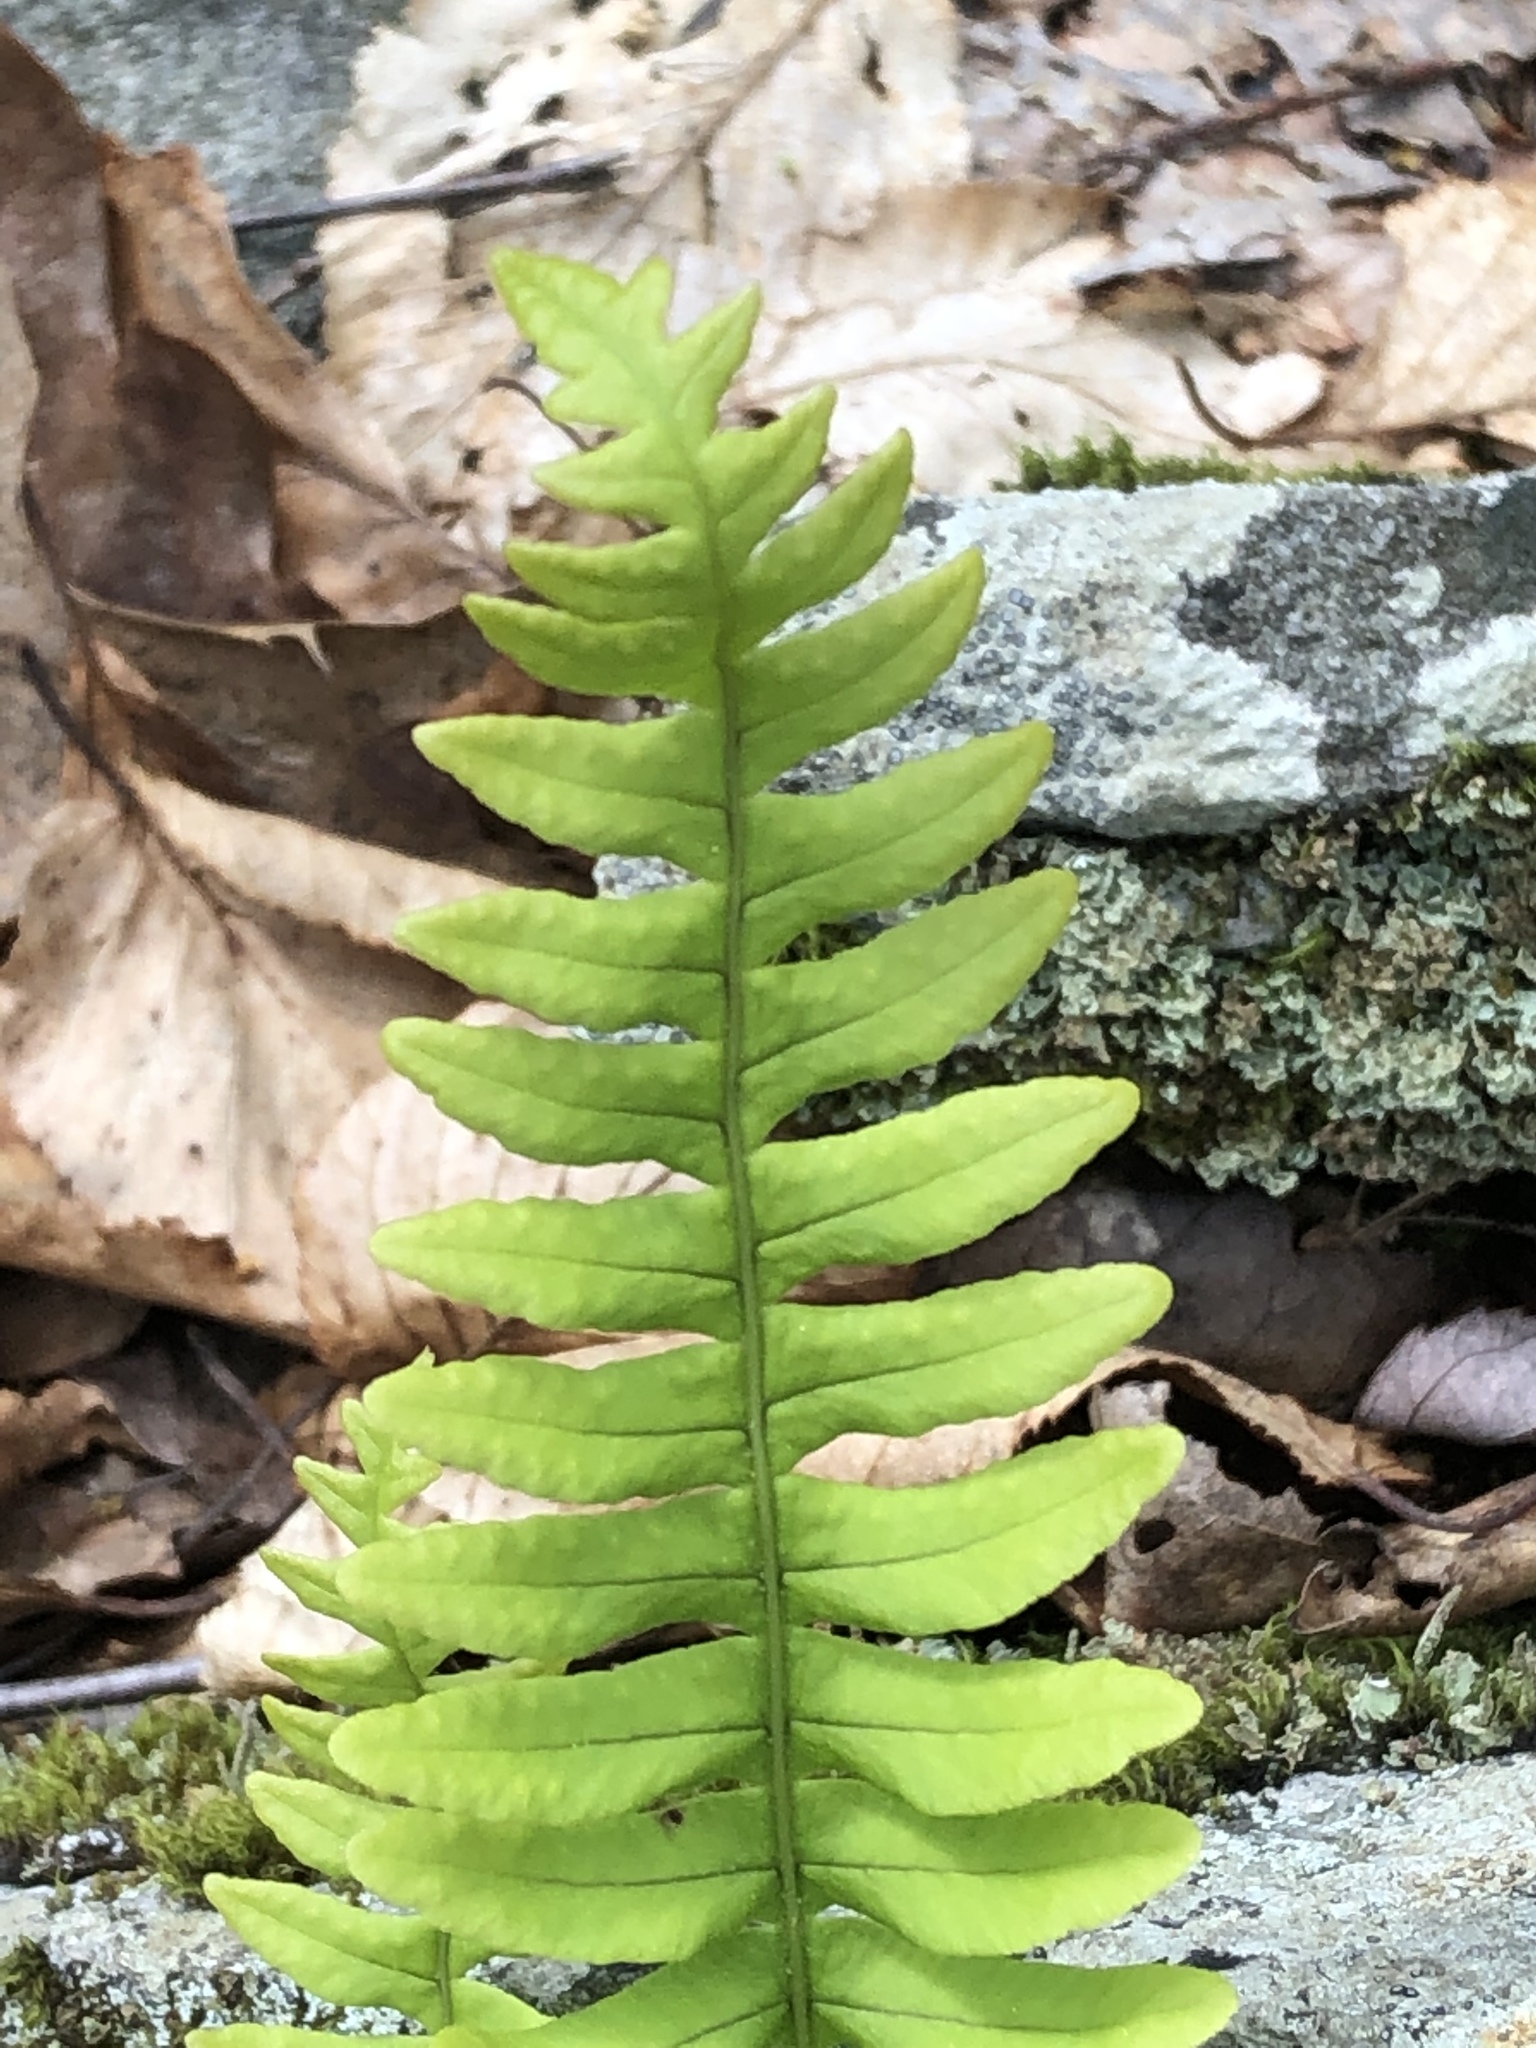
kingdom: Plantae
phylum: Tracheophyta
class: Polypodiopsida
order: Polypodiales
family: Polypodiaceae
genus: Polypodium
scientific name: Polypodium virginianum
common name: American wall fern
